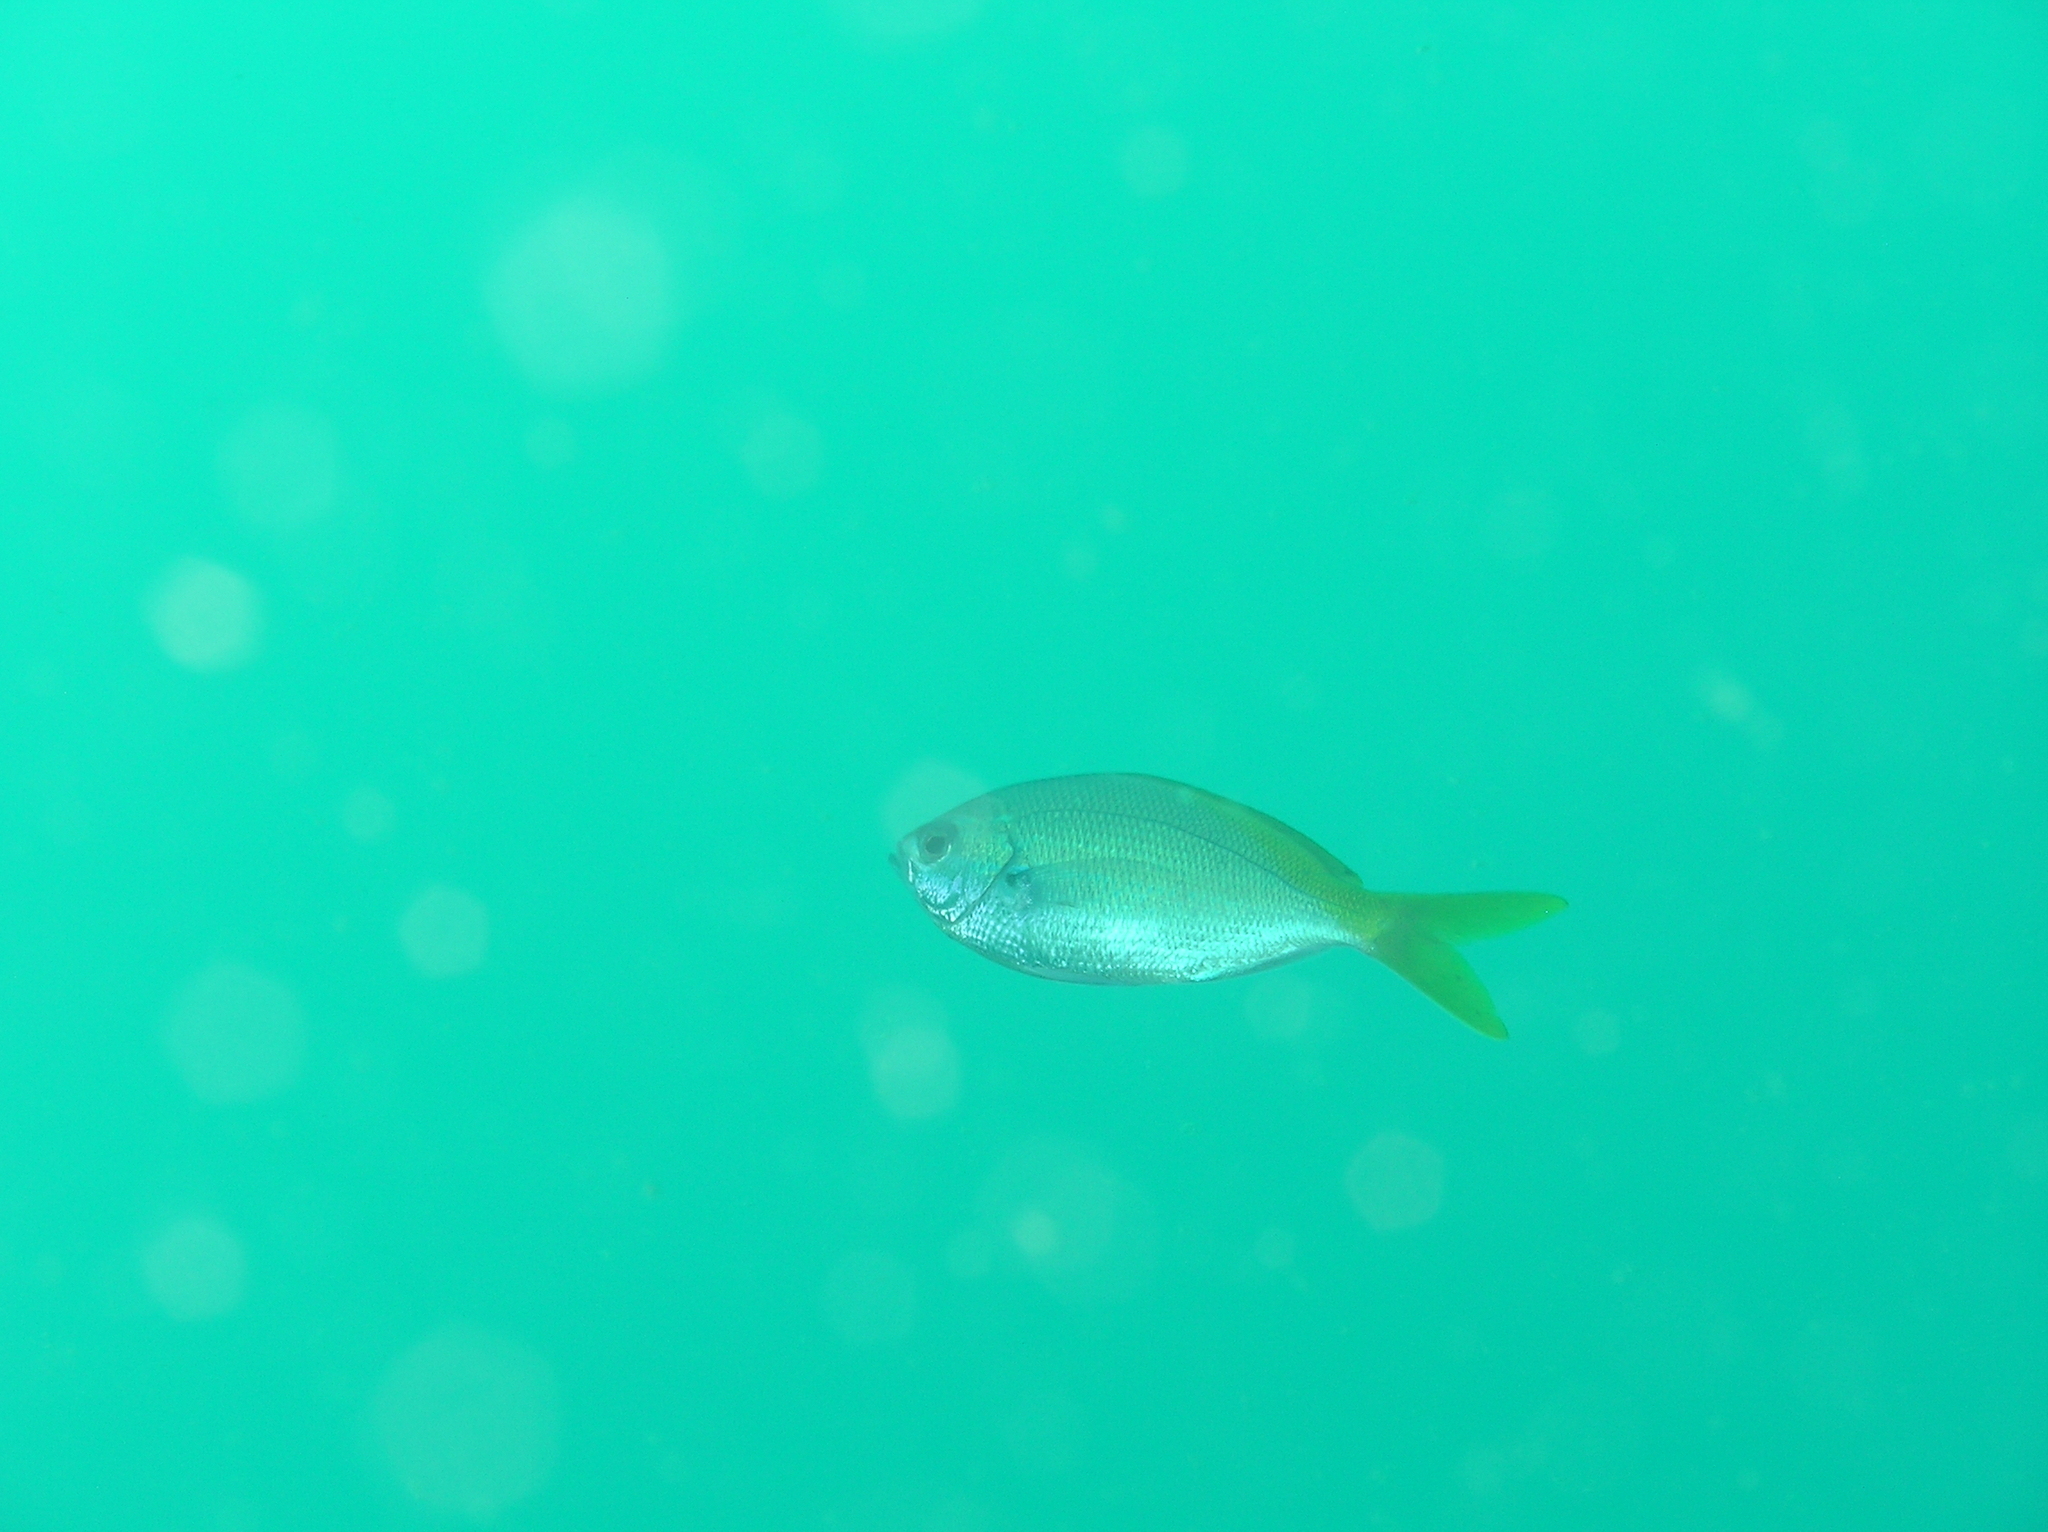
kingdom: Animalia
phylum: Chordata
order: Perciformes
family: Caesionidae
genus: Caesio
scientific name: Caesio cuning
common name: Red-bellied fusilier
